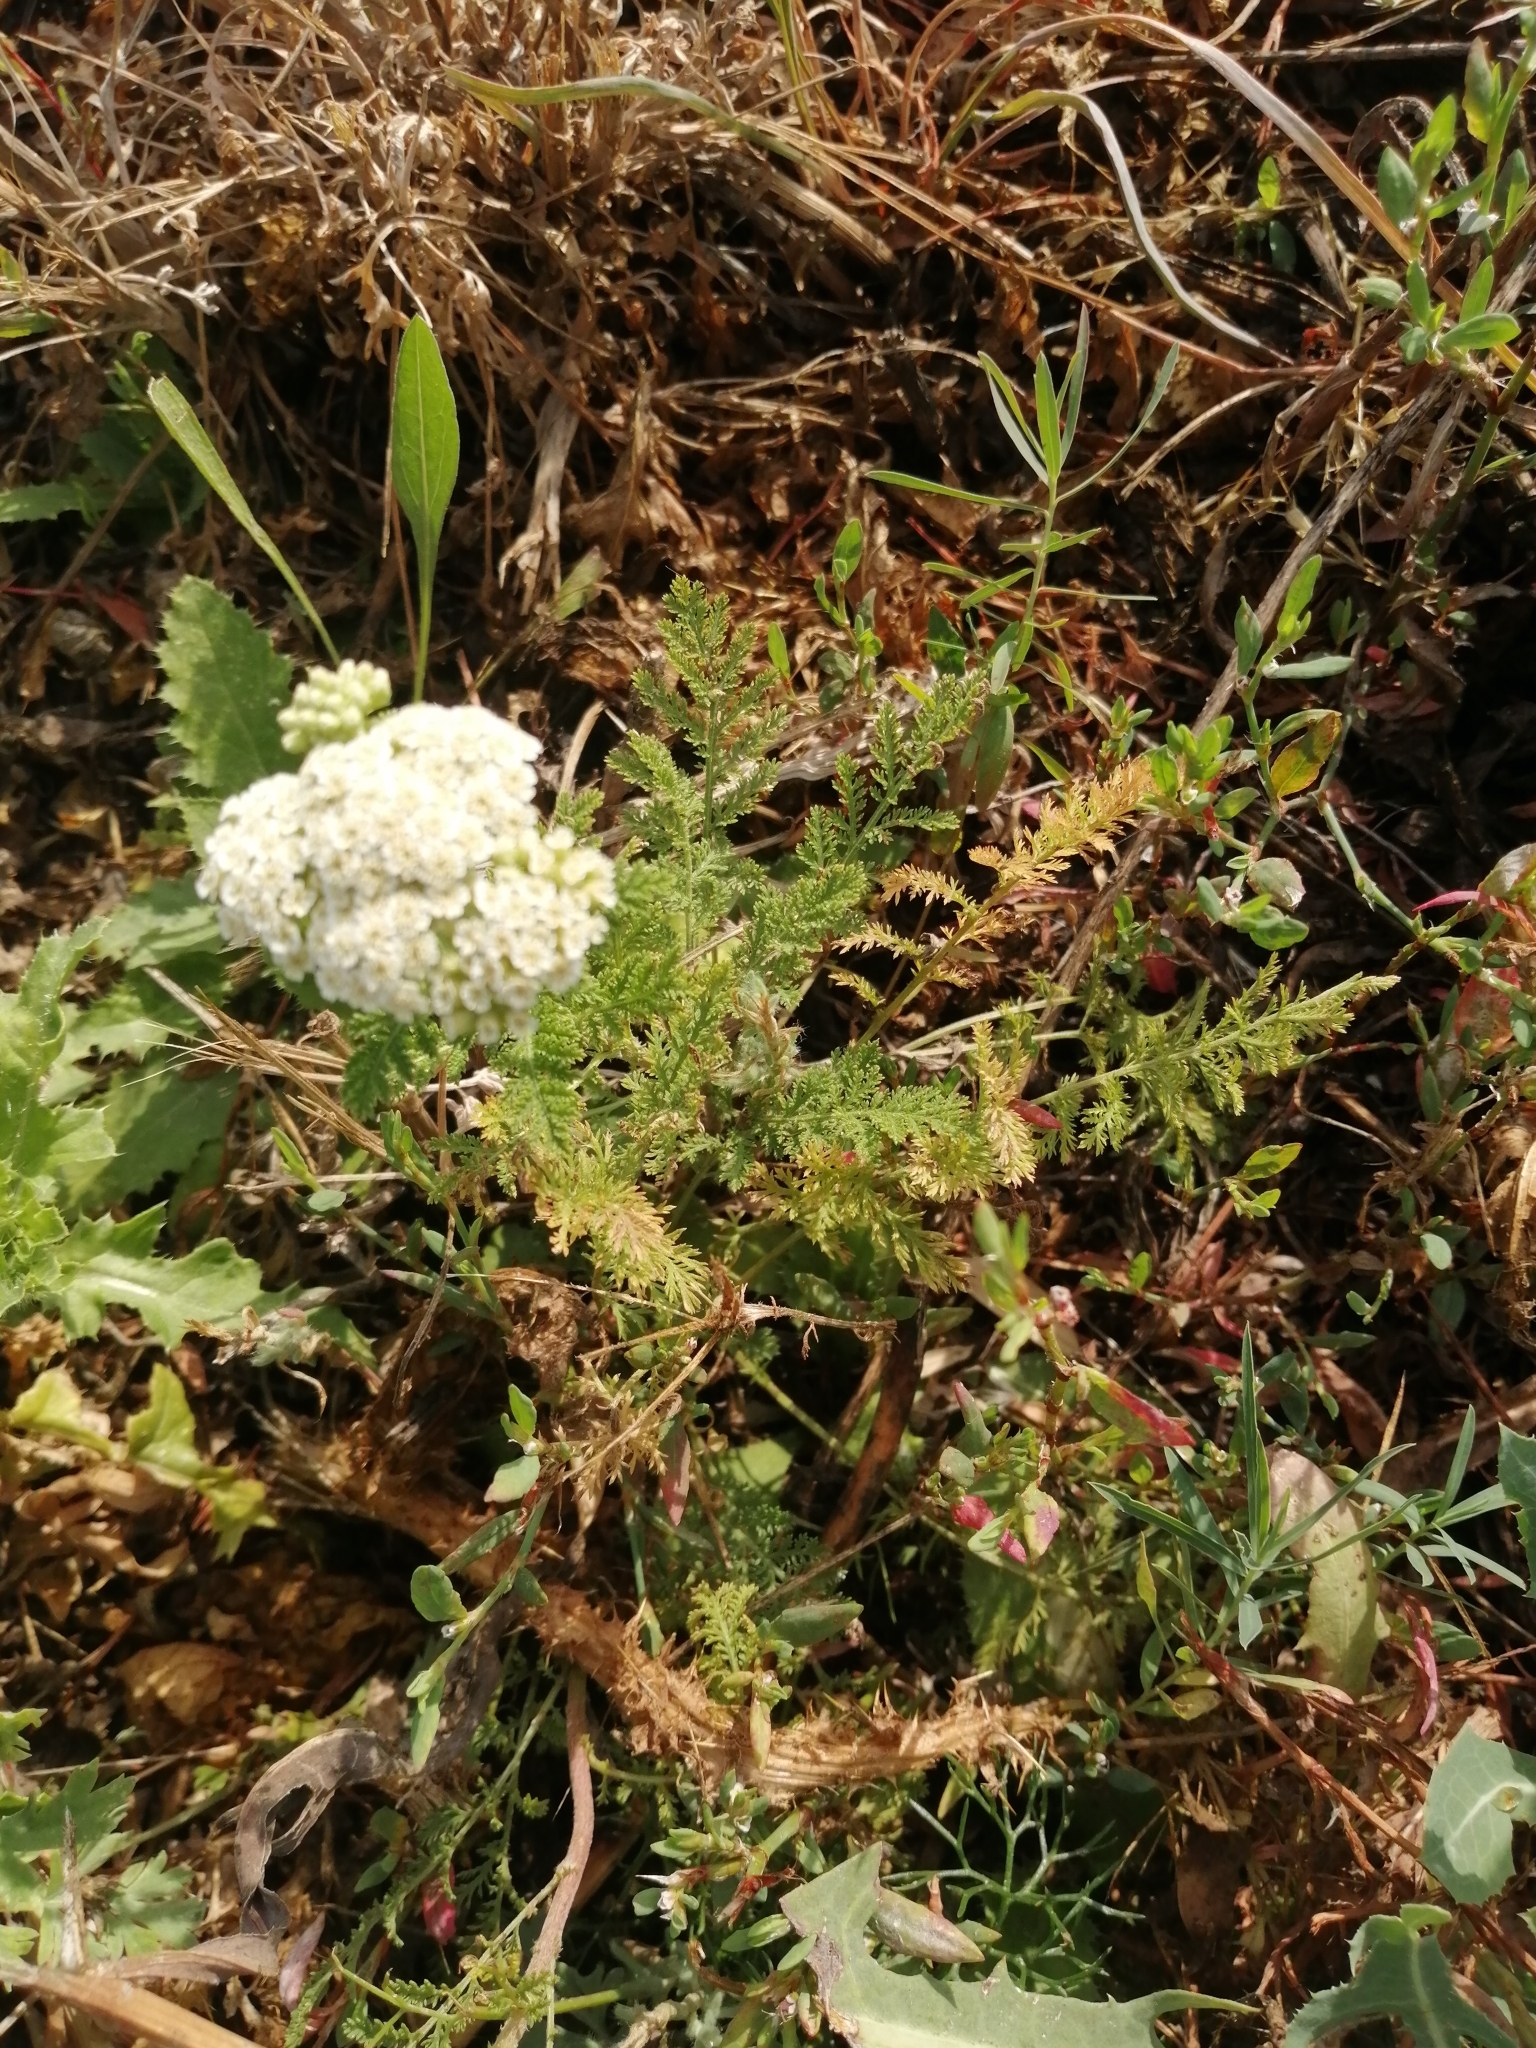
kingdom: Plantae
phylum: Tracheophyta
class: Magnoliopsida
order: Asterales
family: Asteraceae
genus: Achillea
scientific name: Achillea nobilis
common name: Noble yarrow
